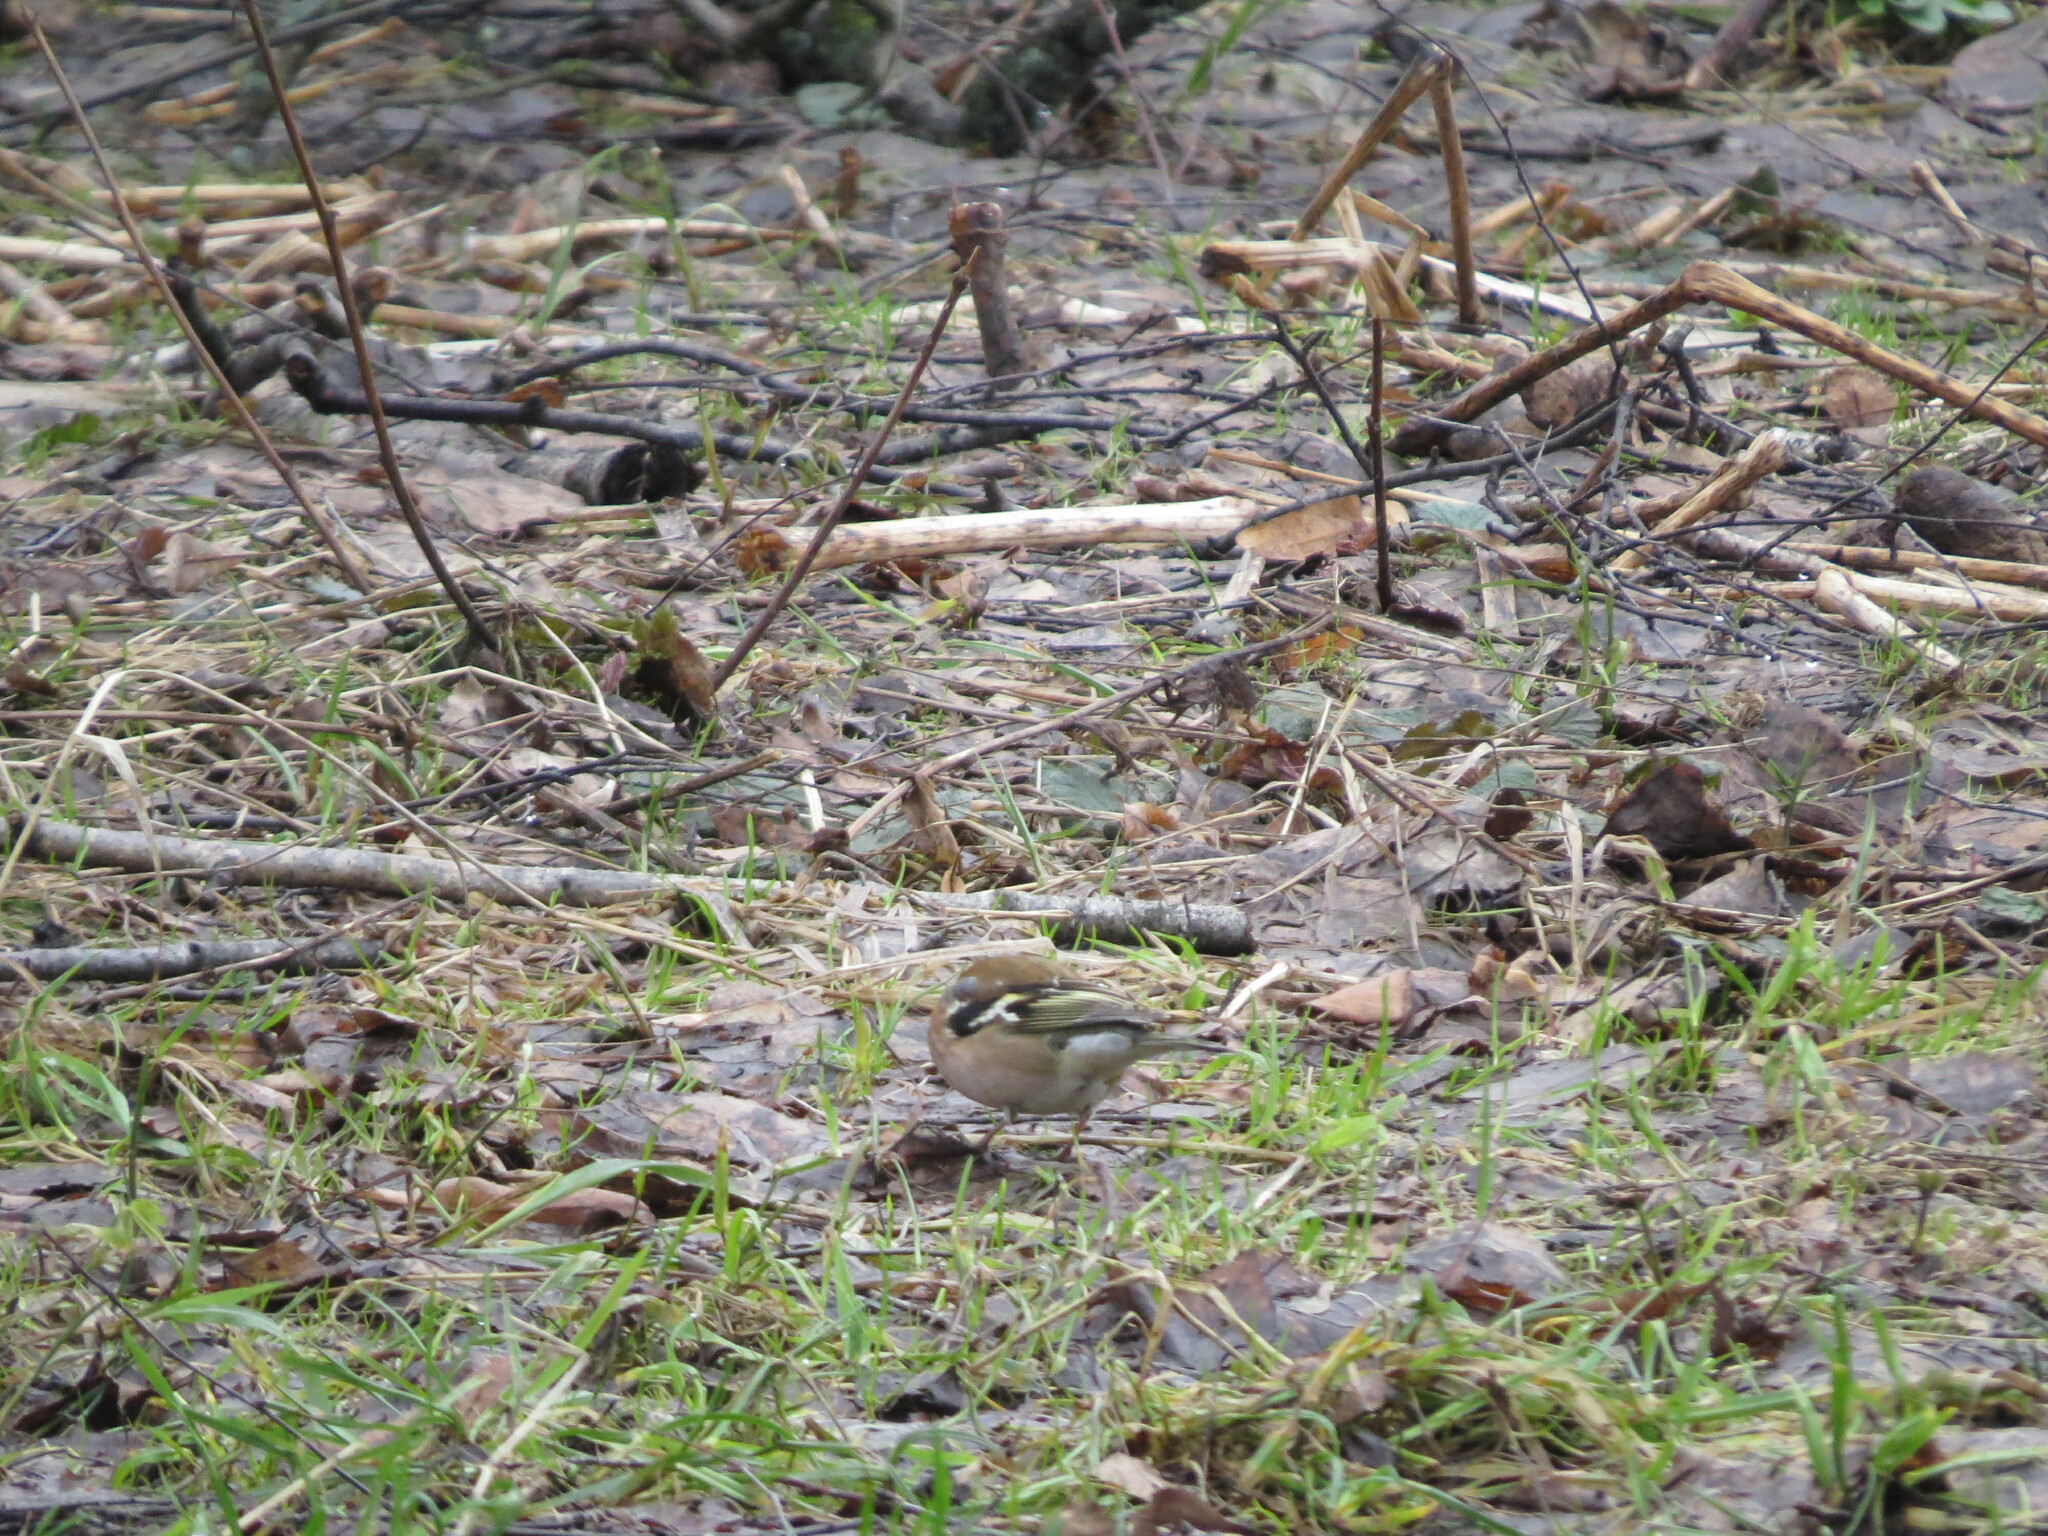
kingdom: Animalia
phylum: Chordata
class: Aves
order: Passeriformes
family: Fringillidae
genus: Fringilla
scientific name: Fringilla coelebs
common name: Common chaffinch
